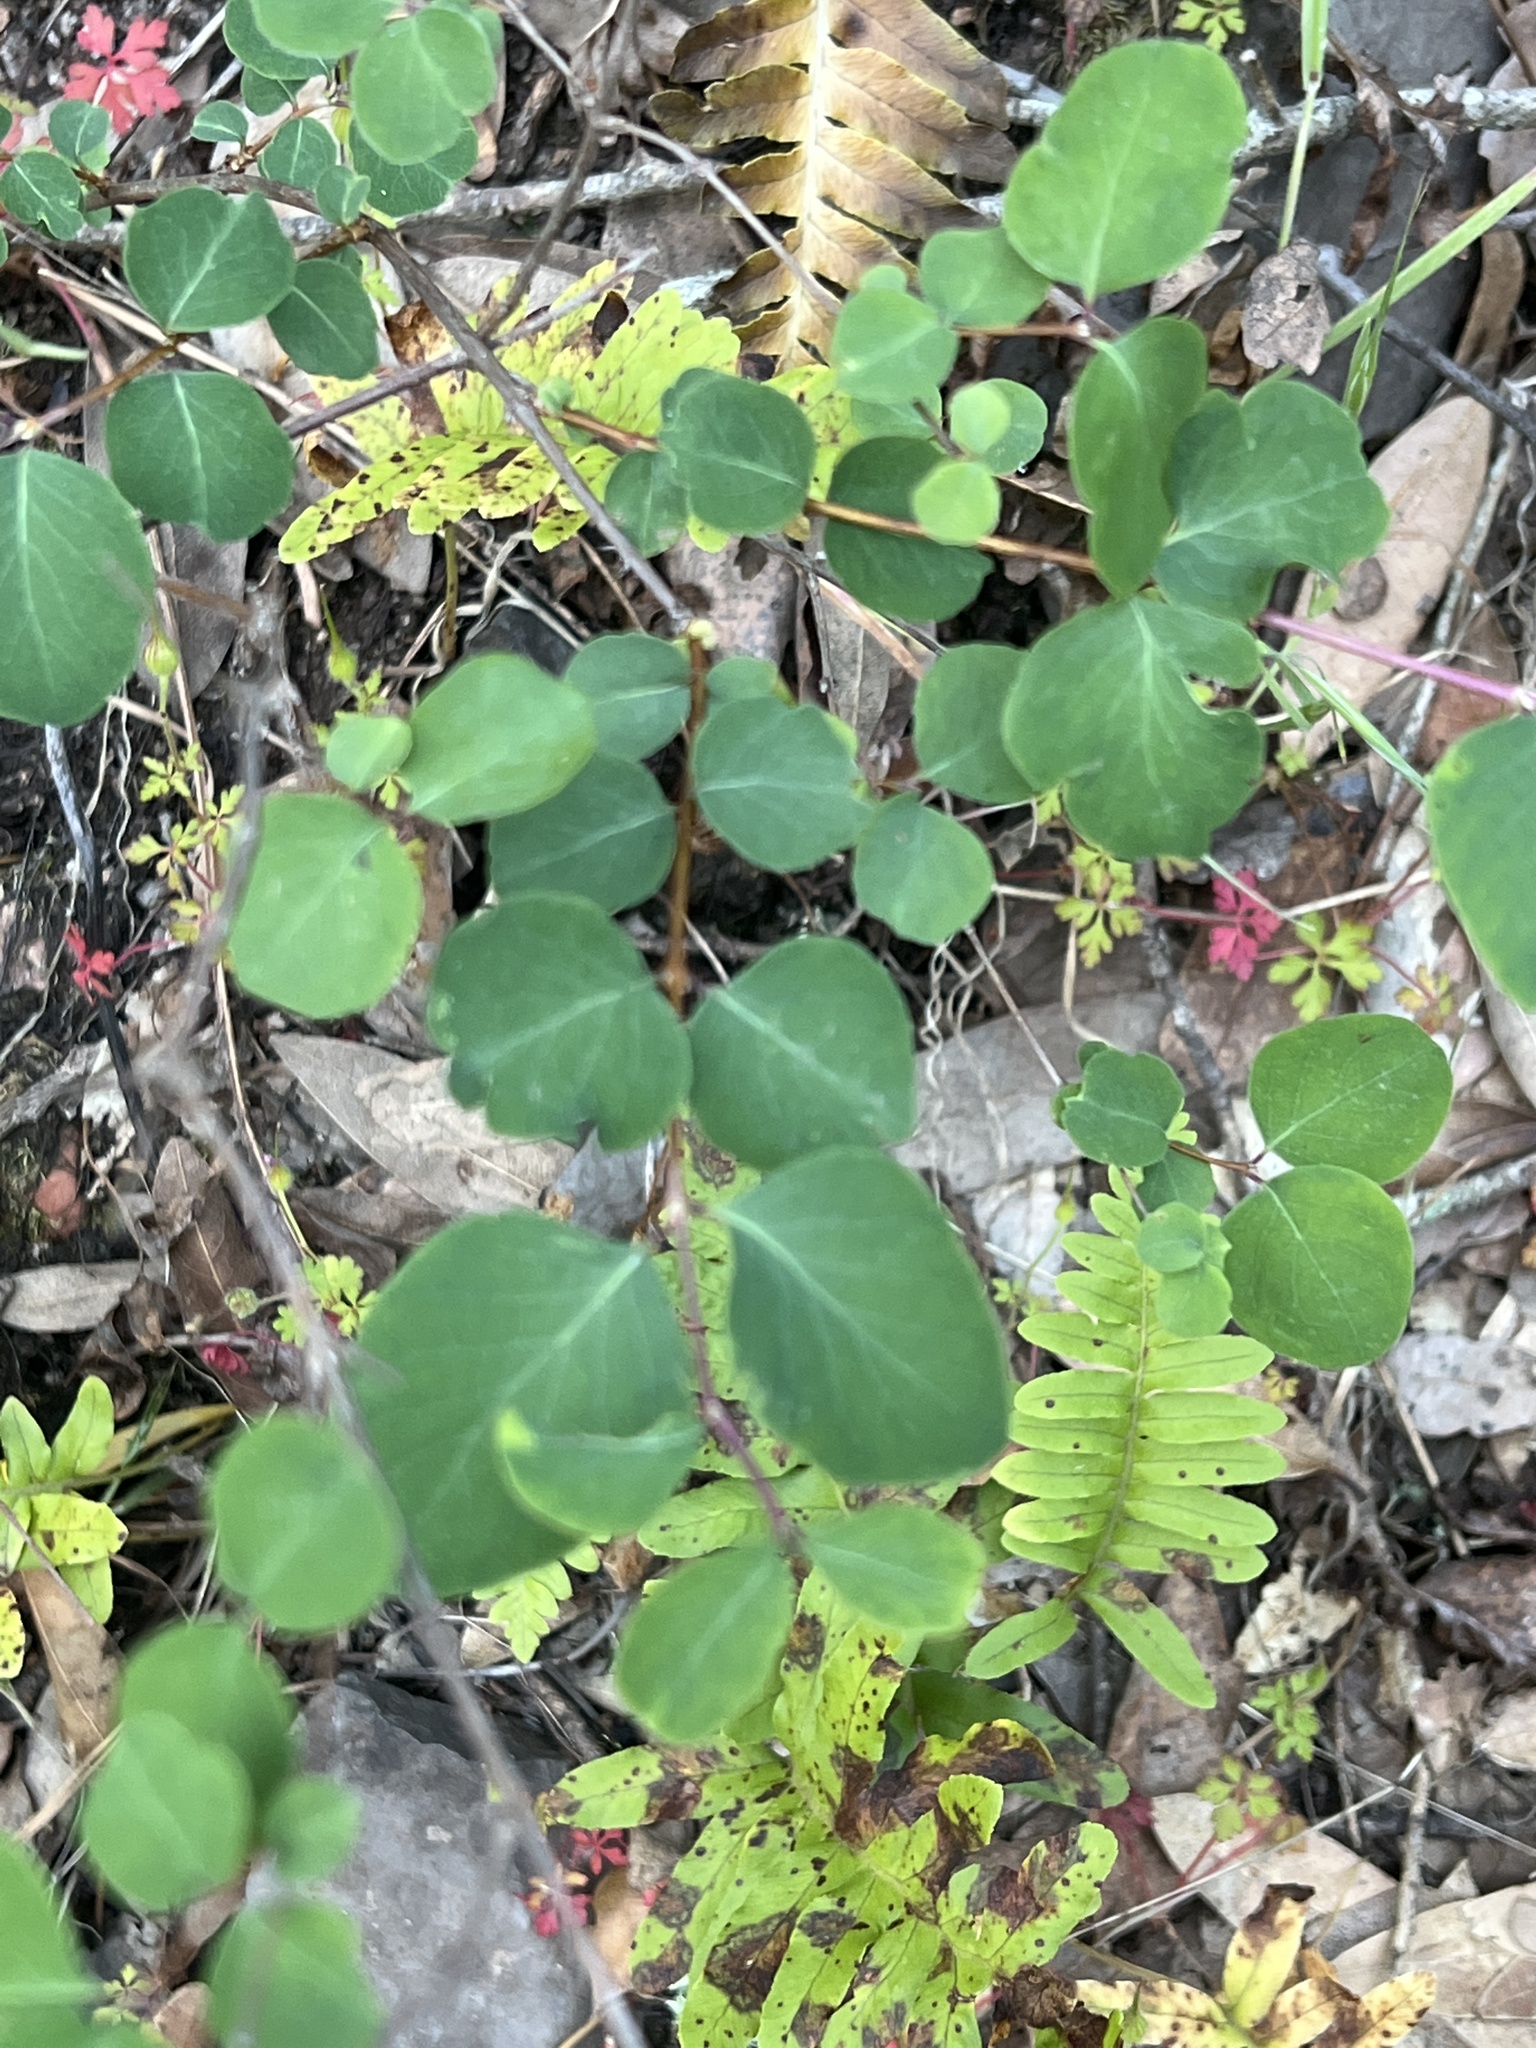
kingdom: Plantae
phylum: Tracheophyta
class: Magnoliopsida
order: Dipsacales
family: Caprifoliaceae
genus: Symphoricarpos
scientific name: Symphoricarpos albus
